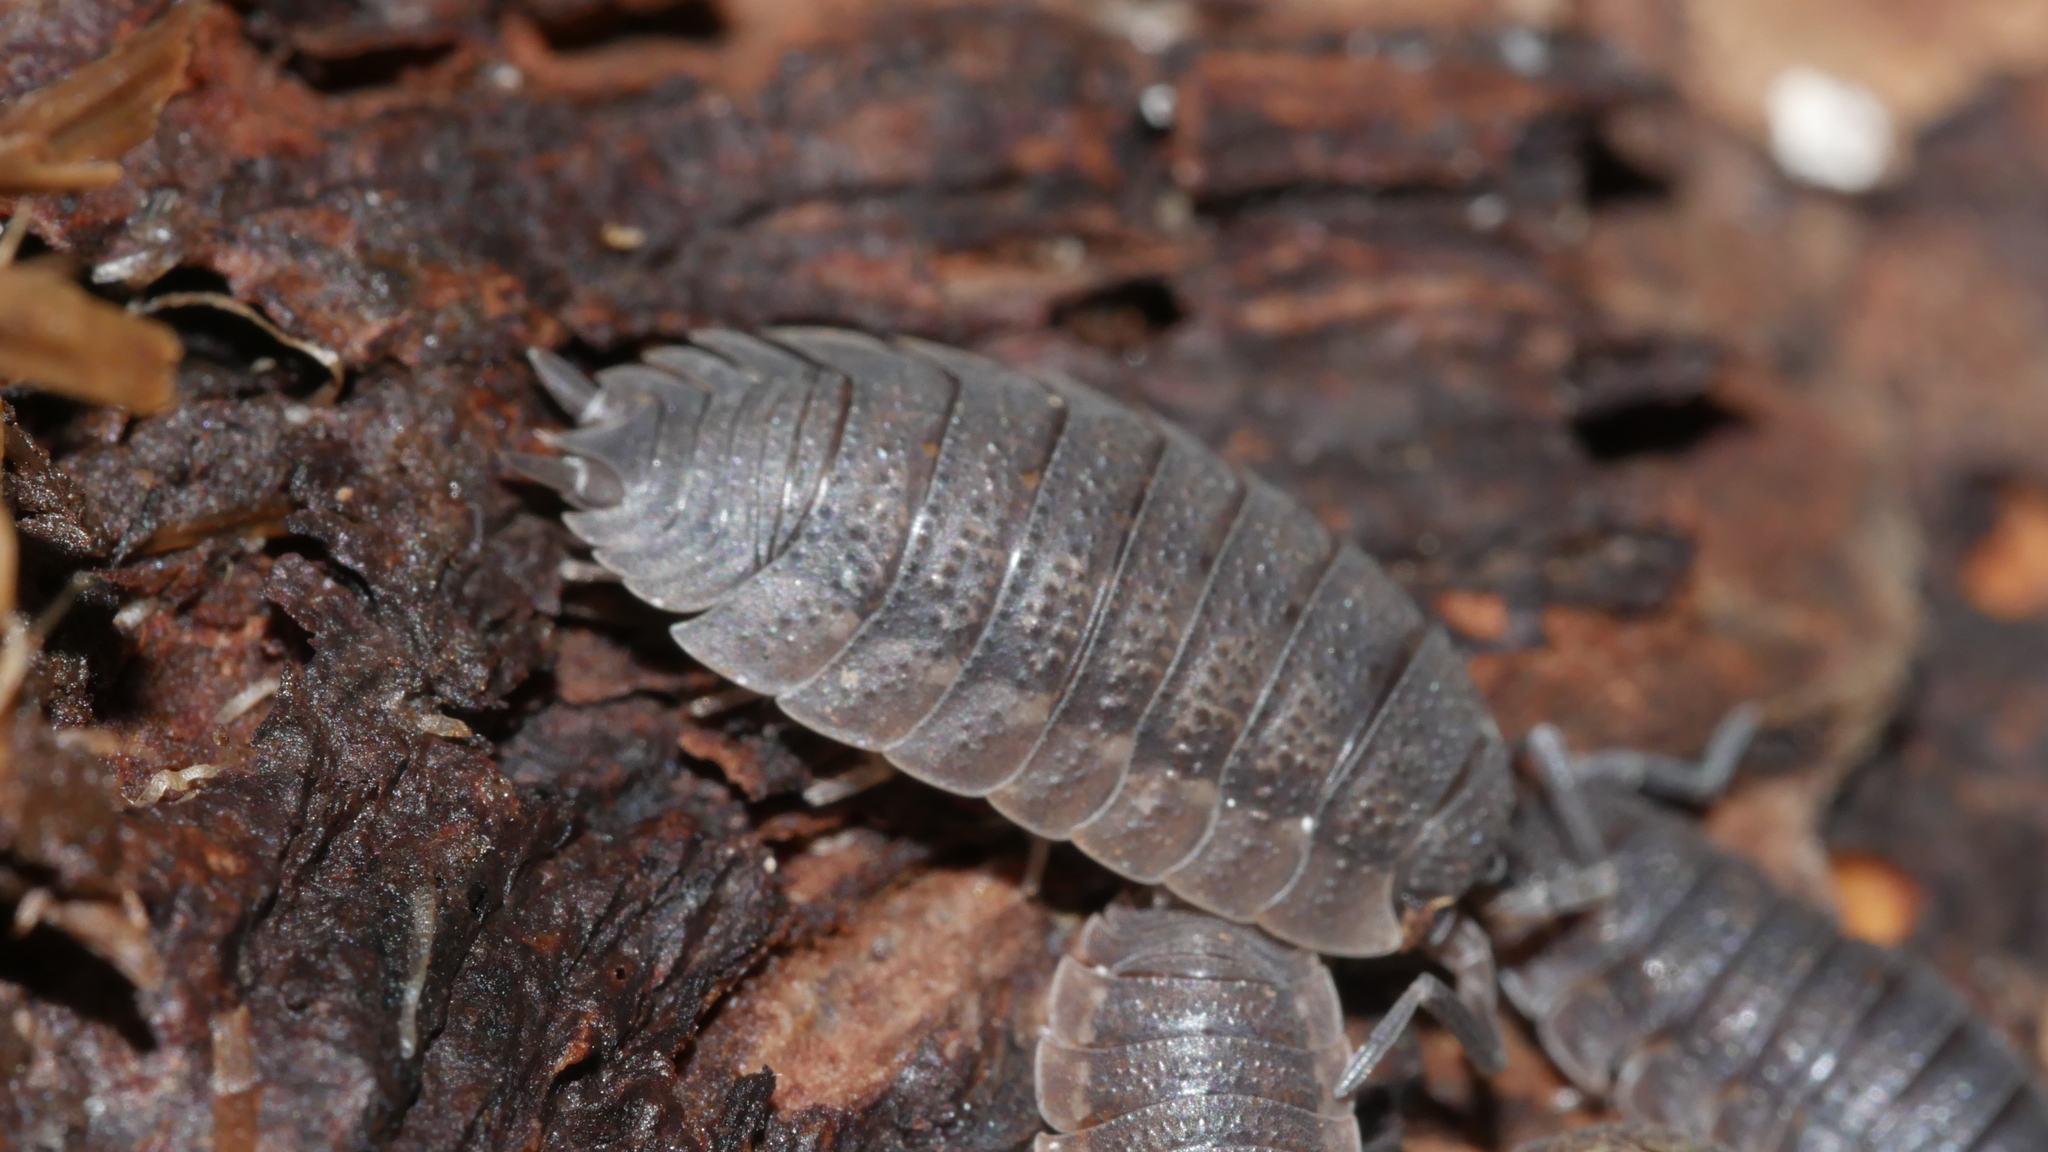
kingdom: Animalia
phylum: Arthropoda
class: Malacostraca
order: Isopoda
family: Porcellionidae
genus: Porcellio
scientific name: Porcellio scaber
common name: Common rough woodlouse
